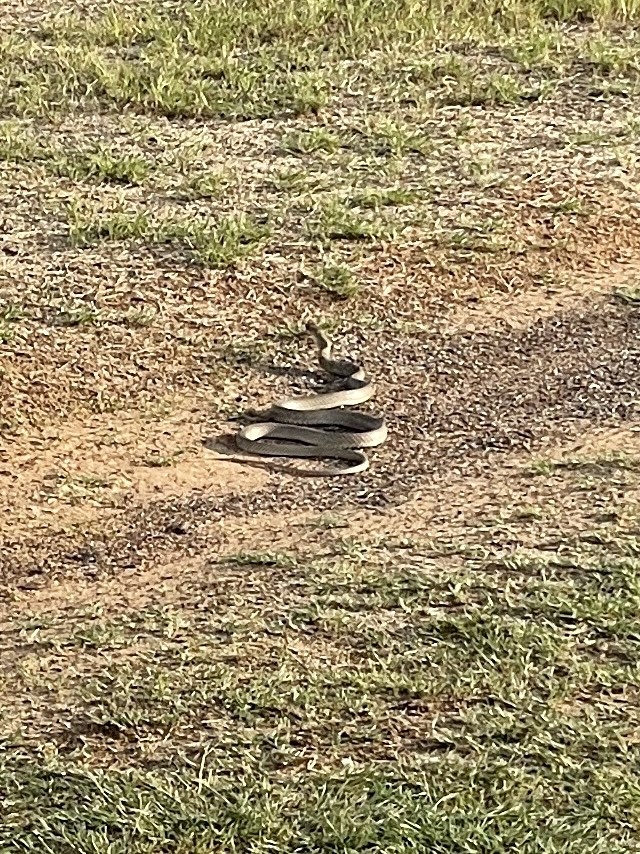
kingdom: Animalia
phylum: Chordata
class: Squamata
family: Colubridae
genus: Masticophis
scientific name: Masticophis flagellum
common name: Coachwhip
